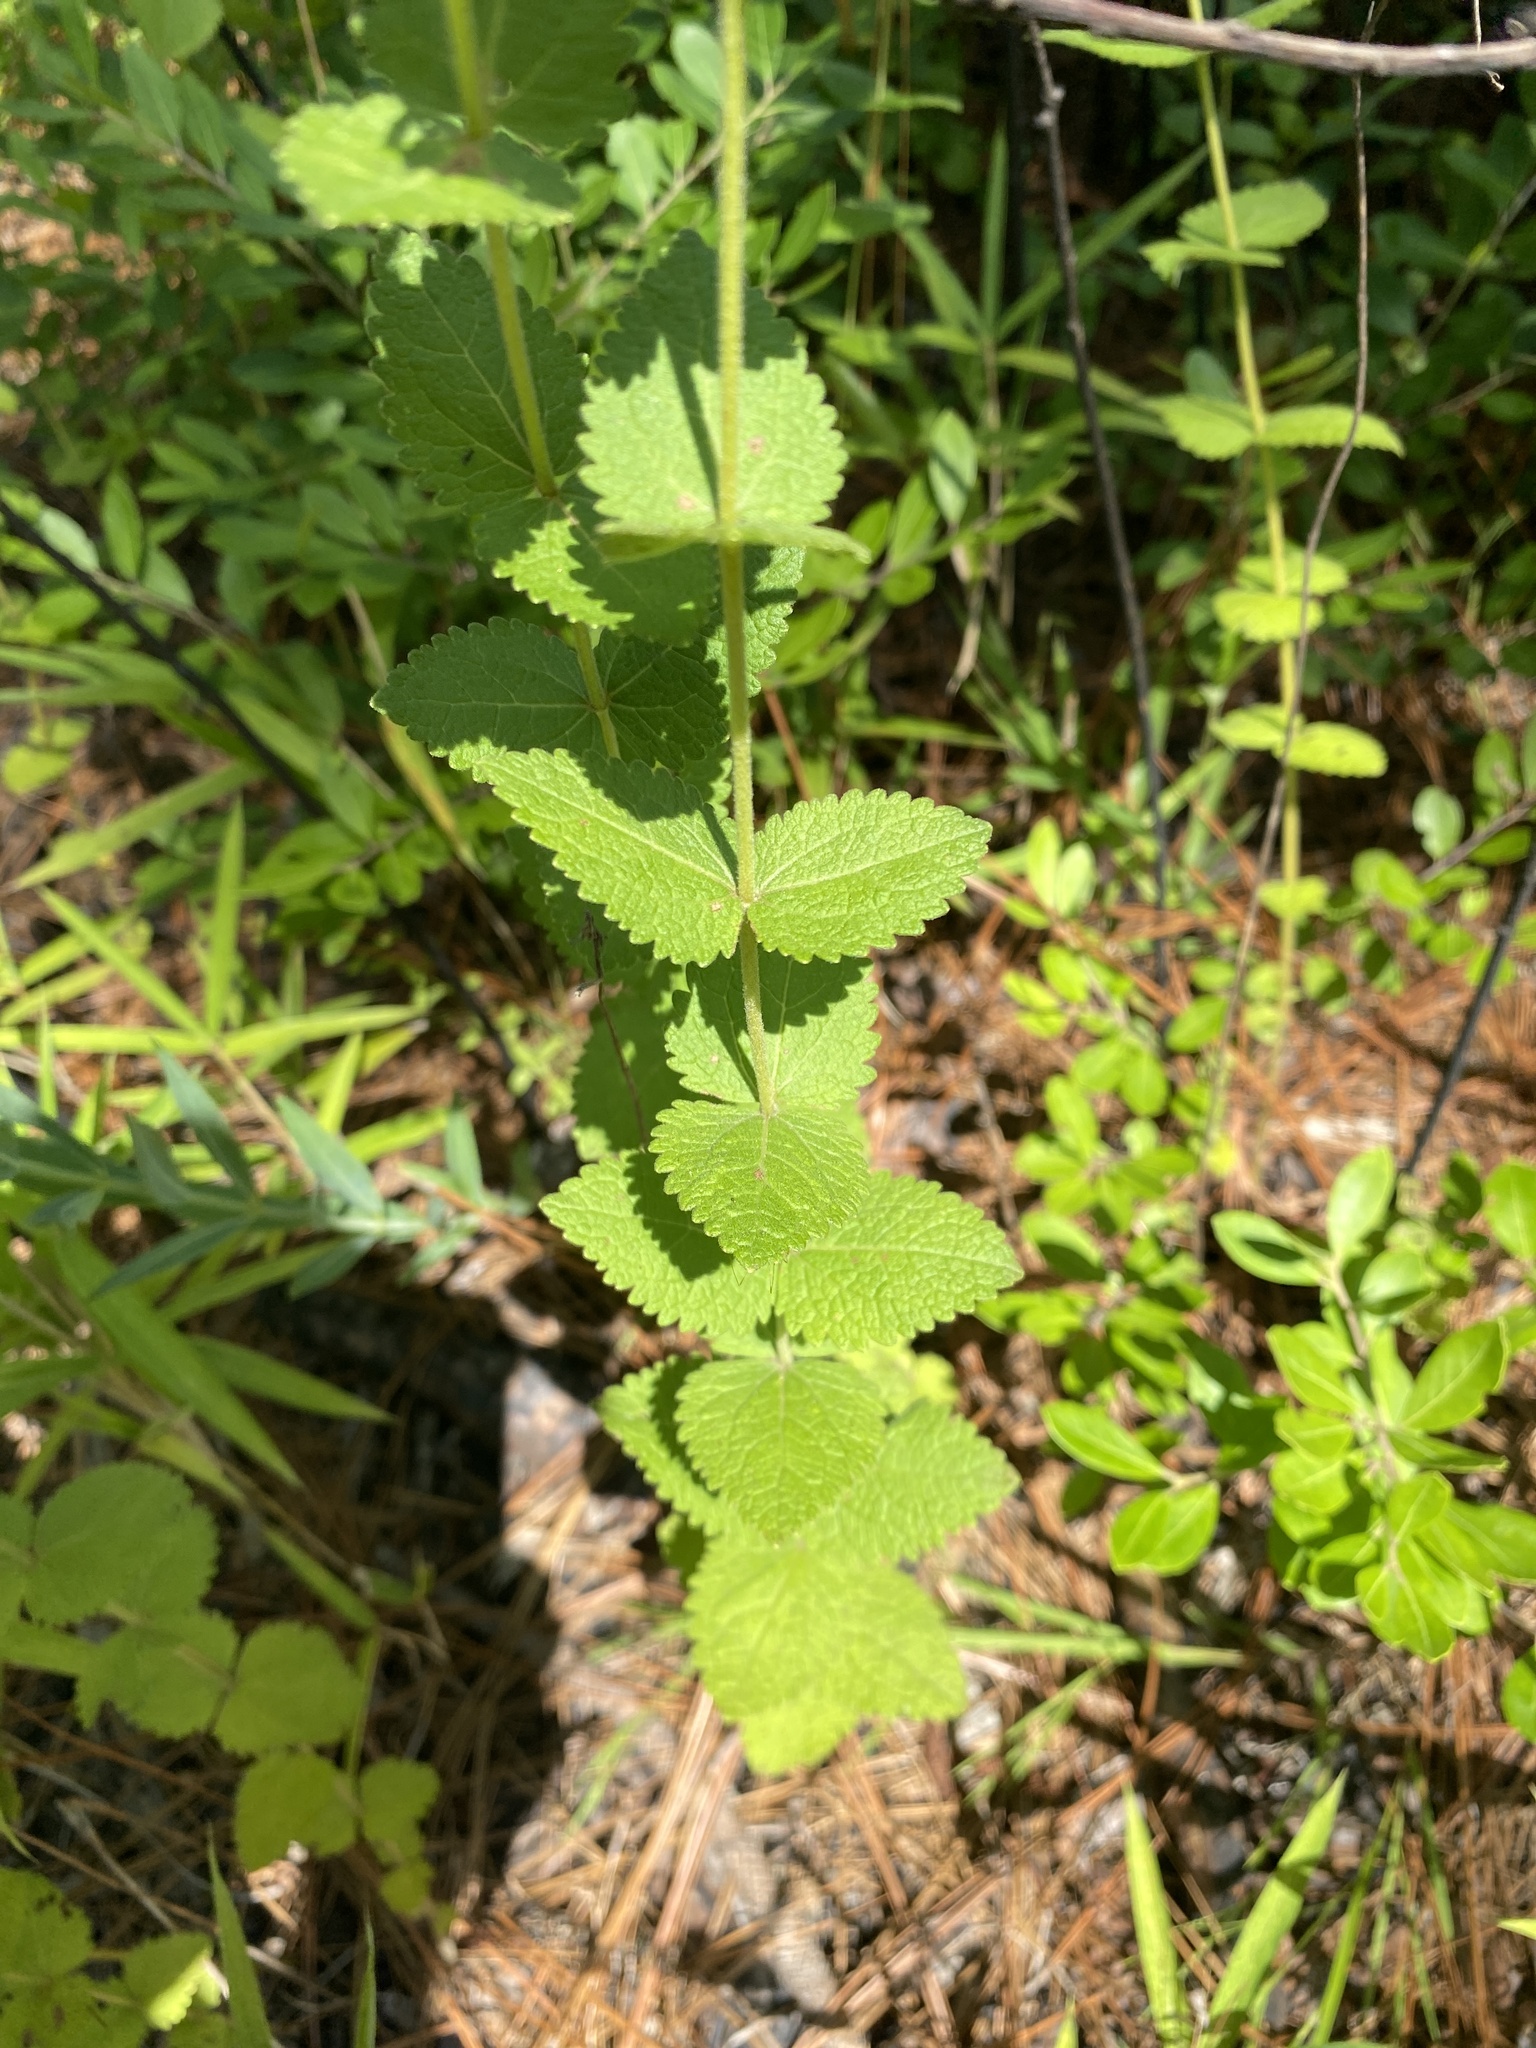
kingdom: Plantae
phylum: Tracheophyta
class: Magnoliopsida
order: Asterales
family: Asteraceae
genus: Eupatorium
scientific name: Eupatorium rotundifolium
